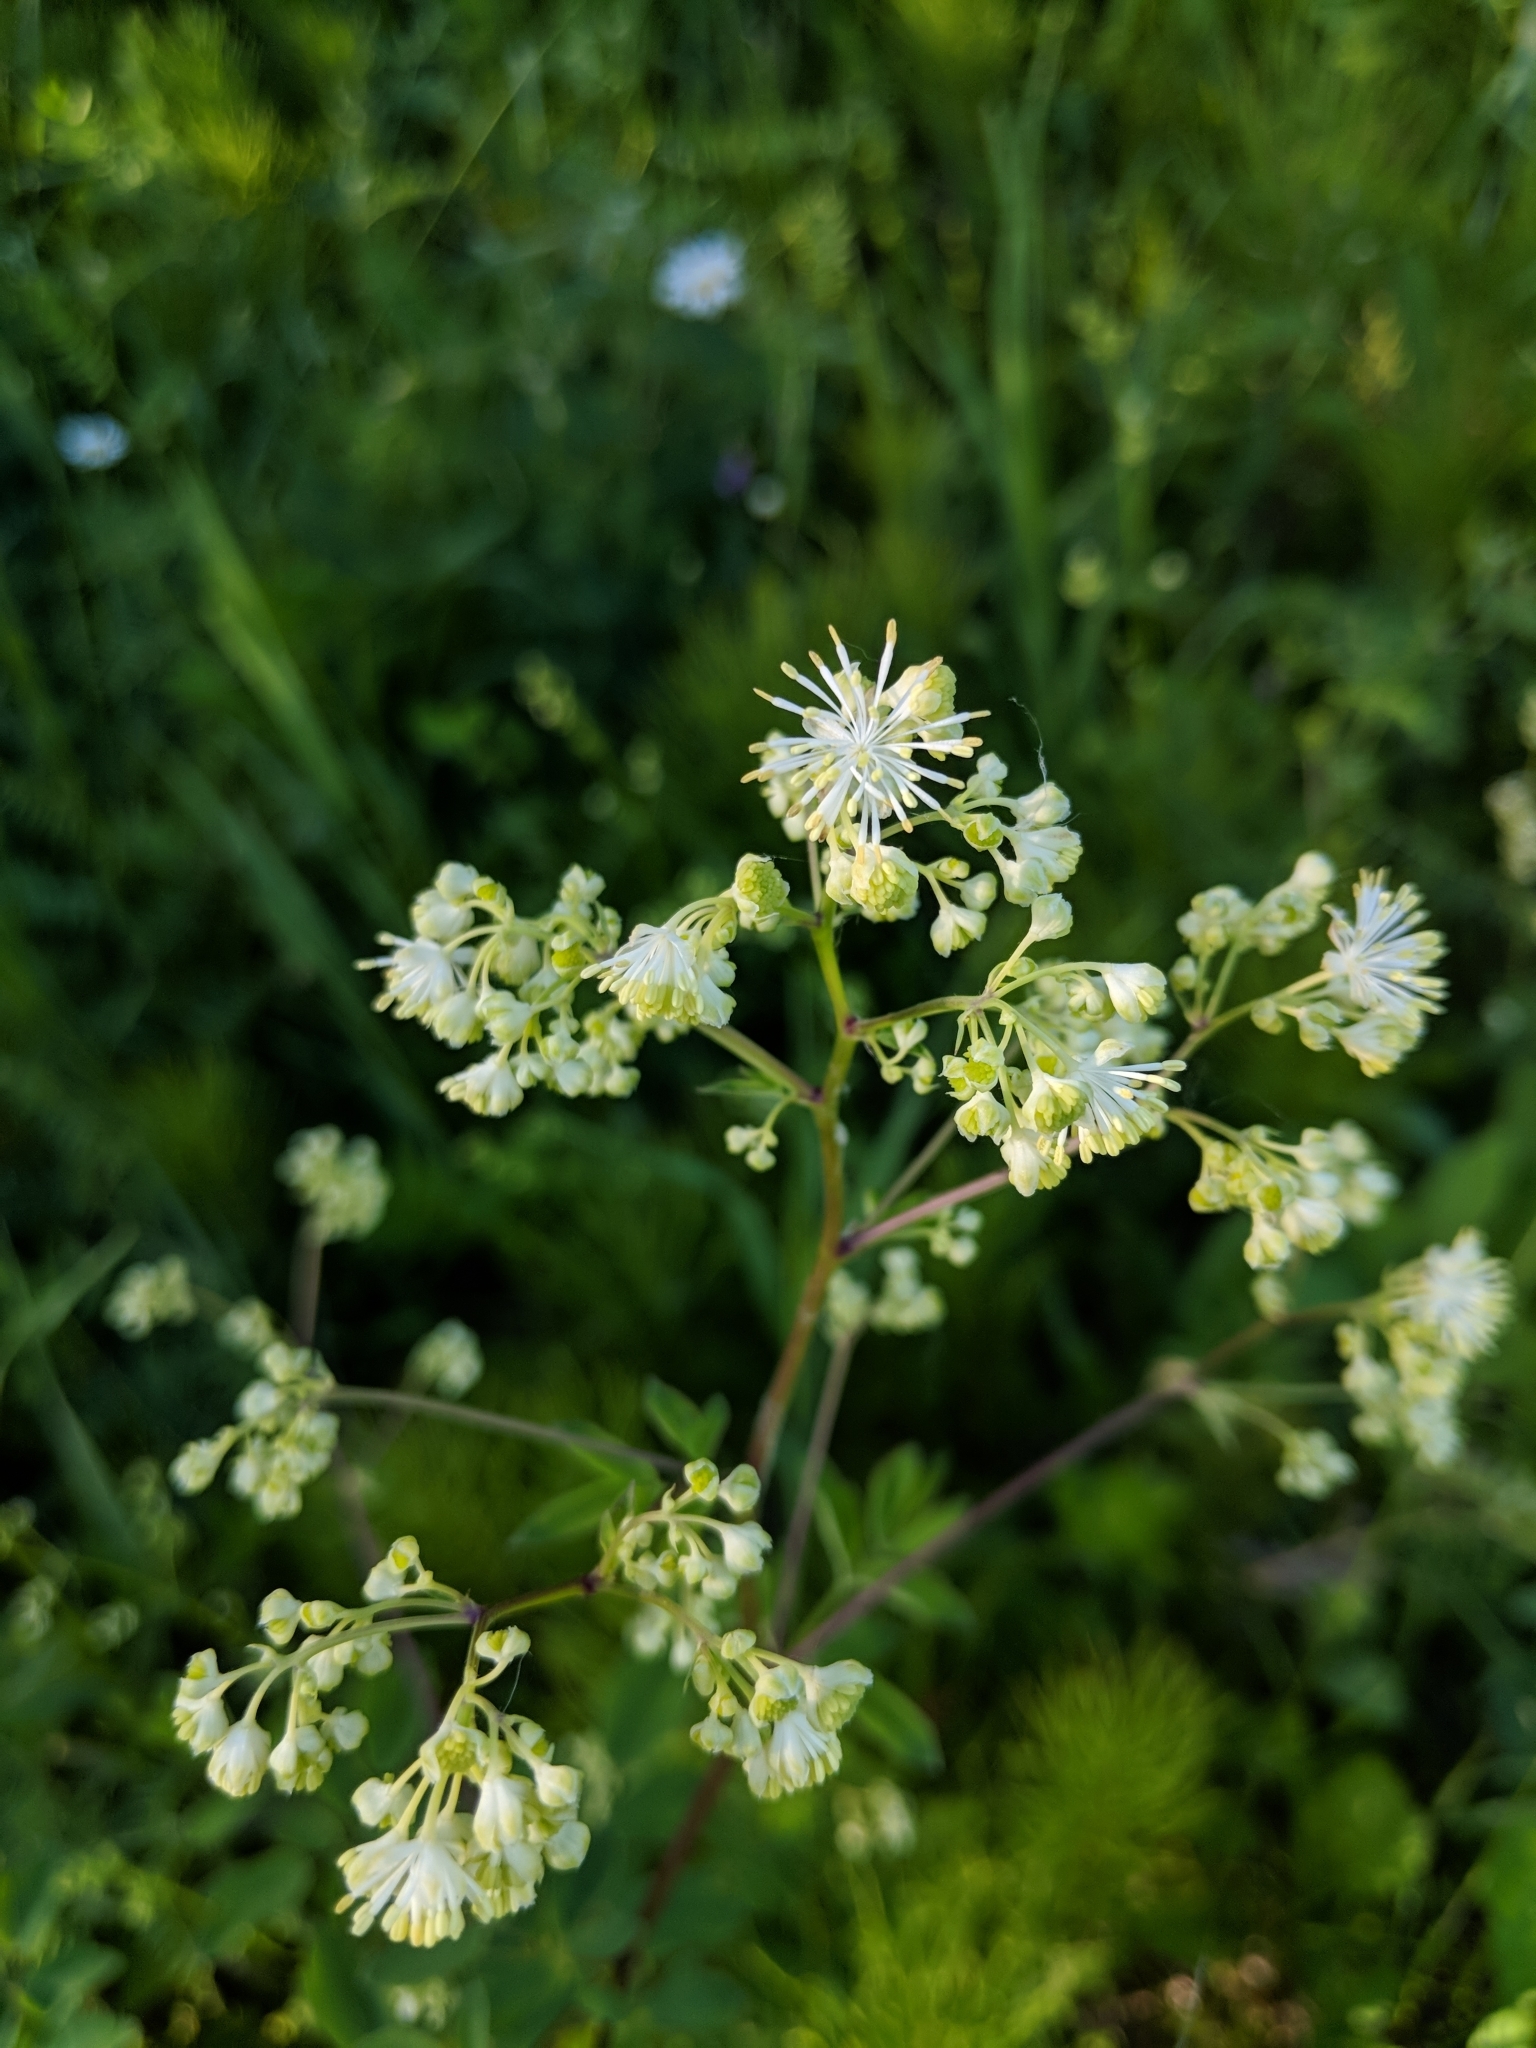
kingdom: Plantae
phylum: Tracheophyta
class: Magnoliopsida
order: Ranunculales
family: Ranunculaceae
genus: Thalictrum
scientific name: Thalictrum pubescens
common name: King-of-the-meadow
